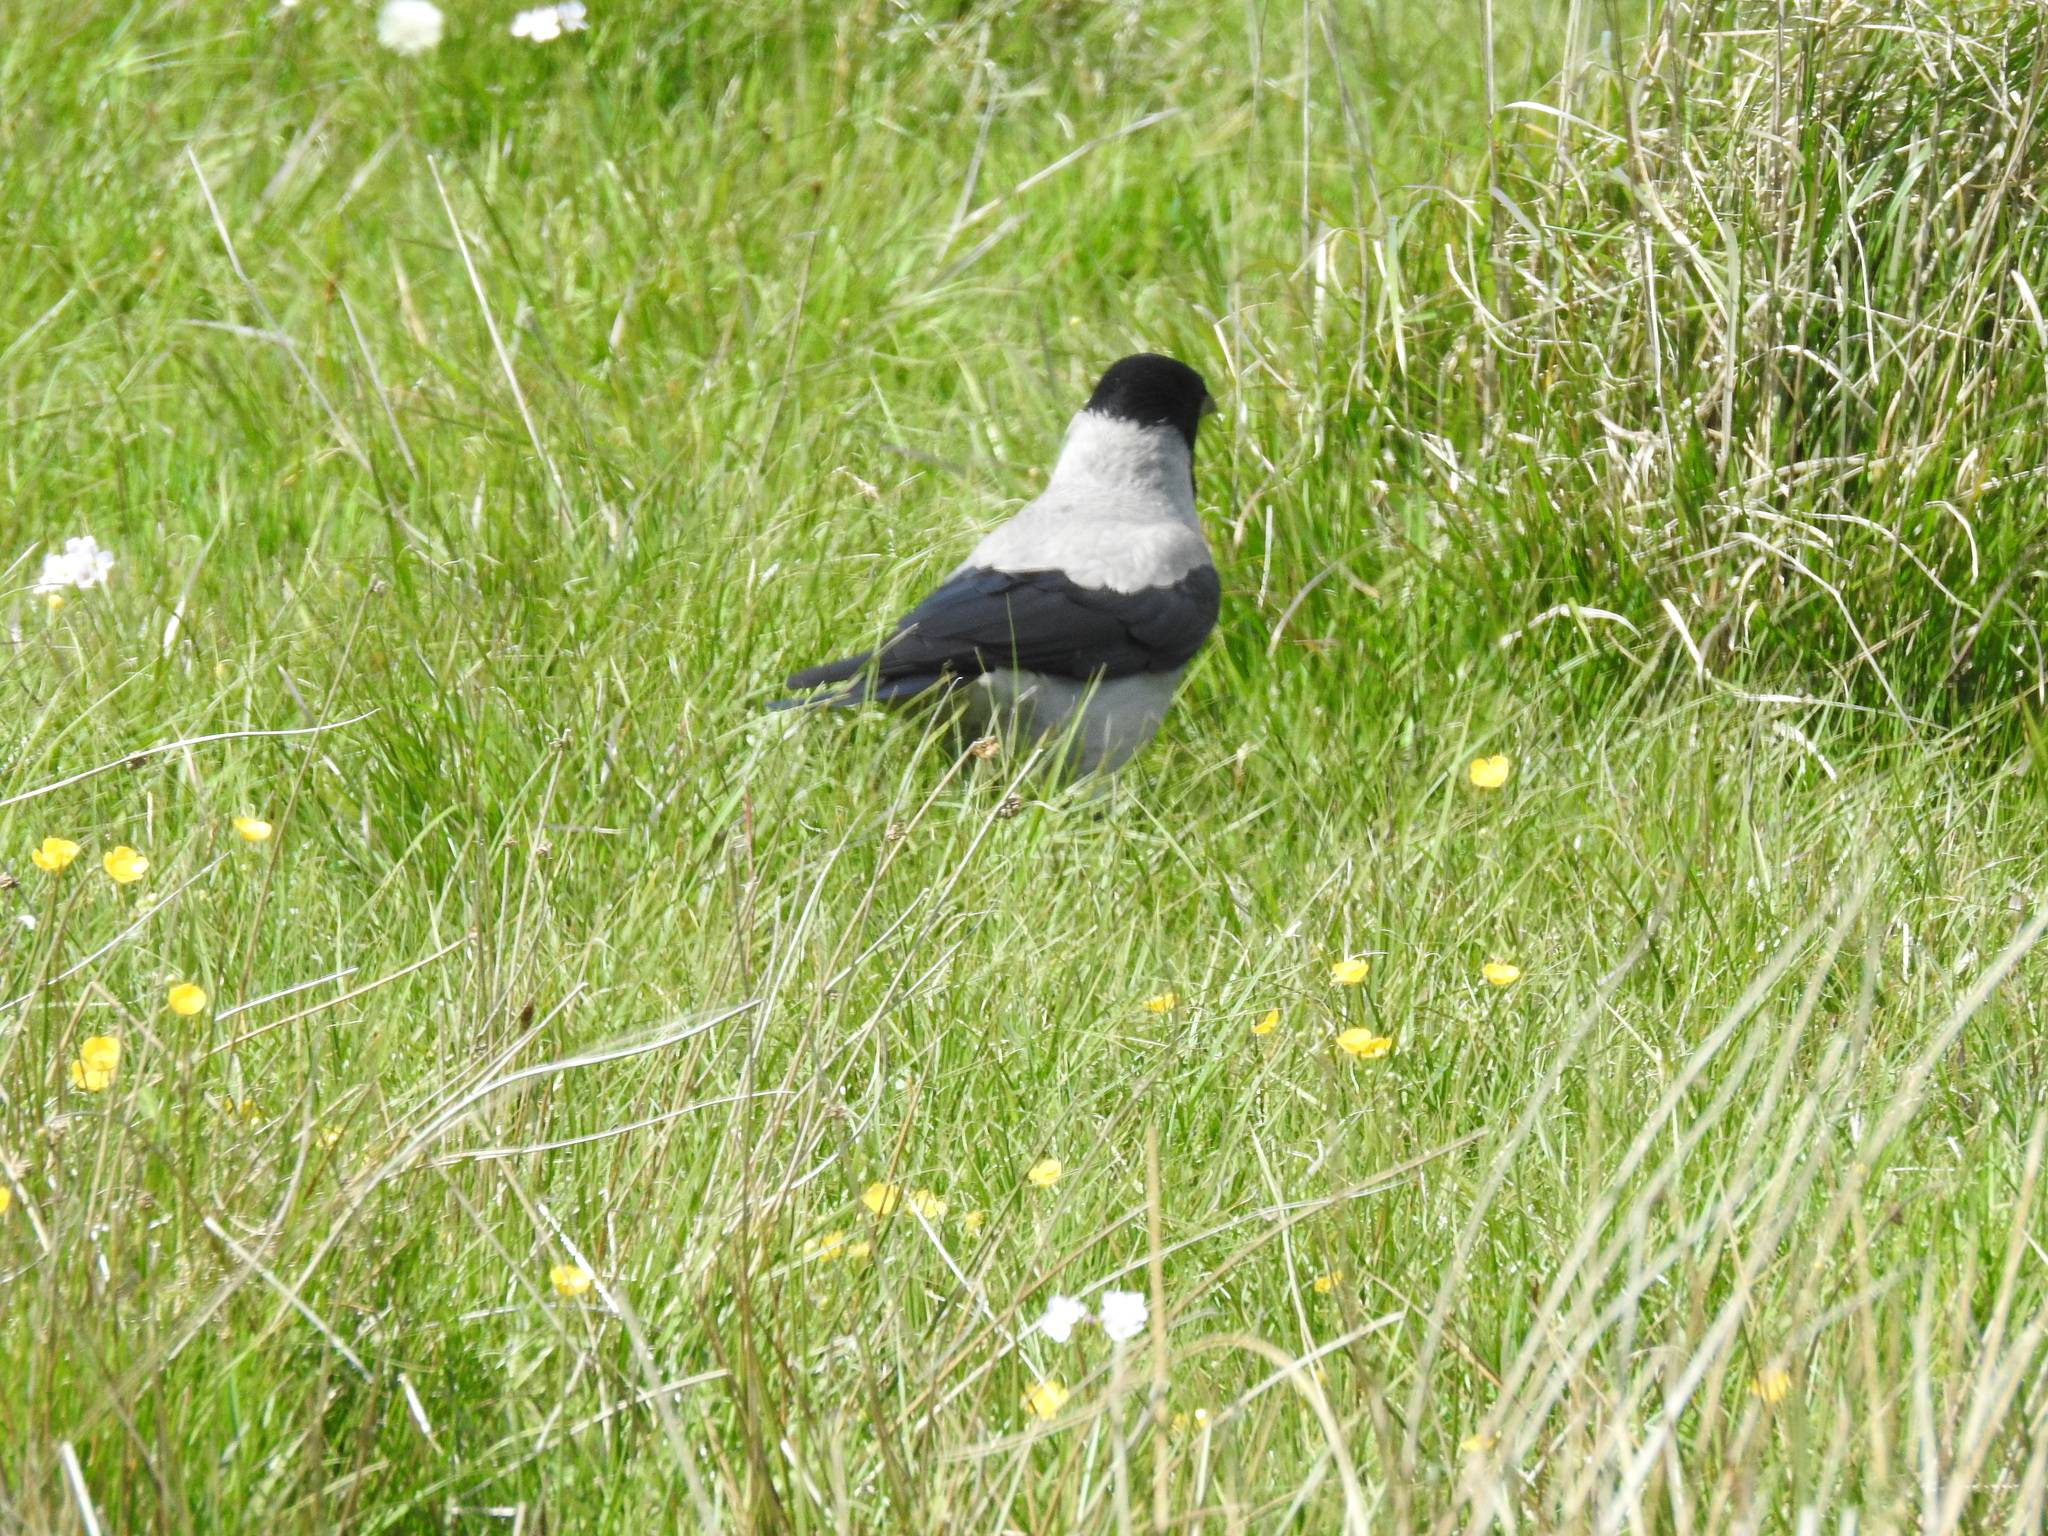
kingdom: Animalia
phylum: Chordata
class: Aves
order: Passeriformes
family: Corvidae
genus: Corvus
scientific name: Corvus cornix
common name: Hooded crow
